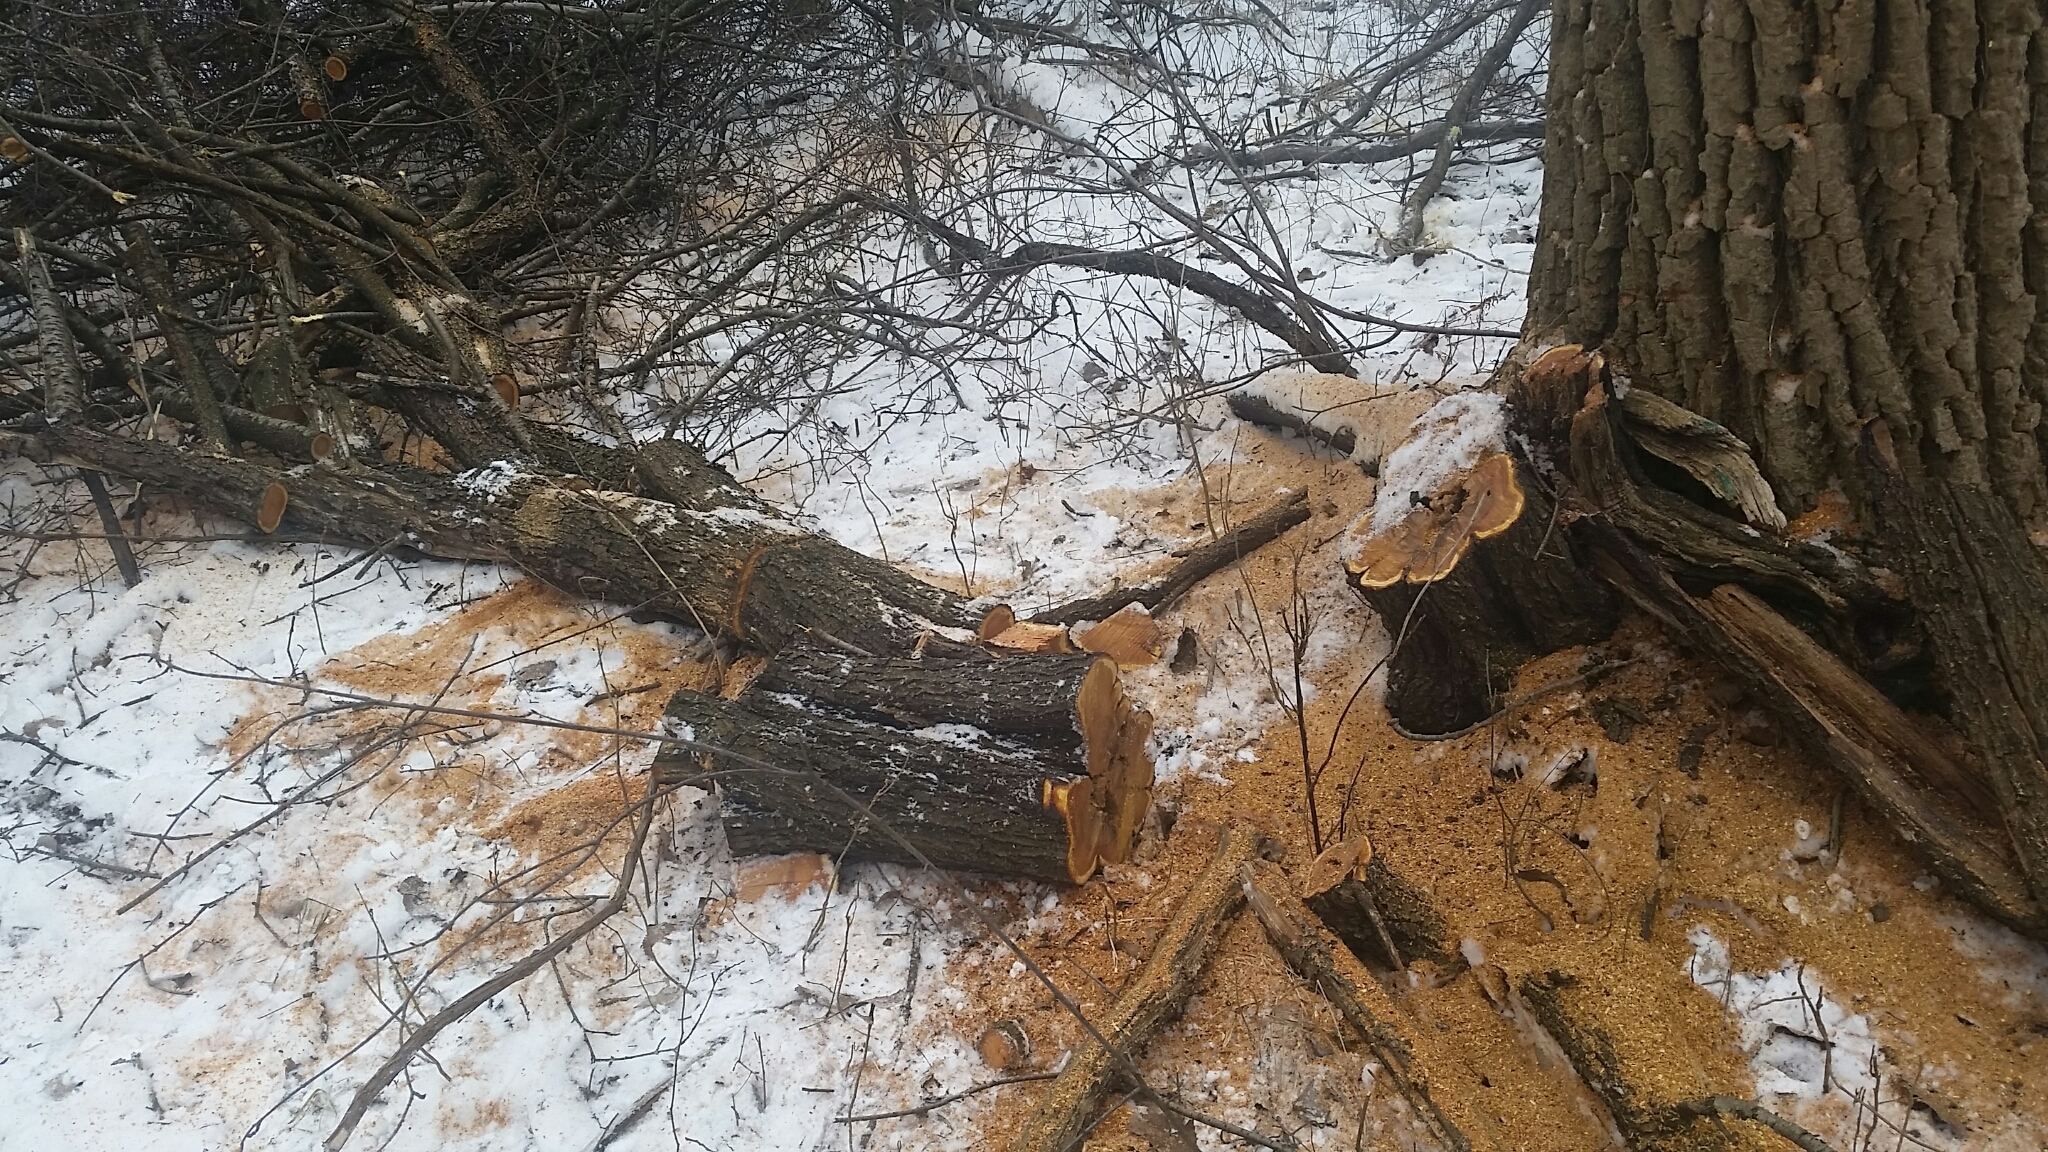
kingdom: Plantae
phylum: Tracheophyta
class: Magnoliopsida
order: Rosales
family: Rhamnaceae
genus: Rhamnus
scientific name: Rhamnus cathartica
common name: Common buckthorn
